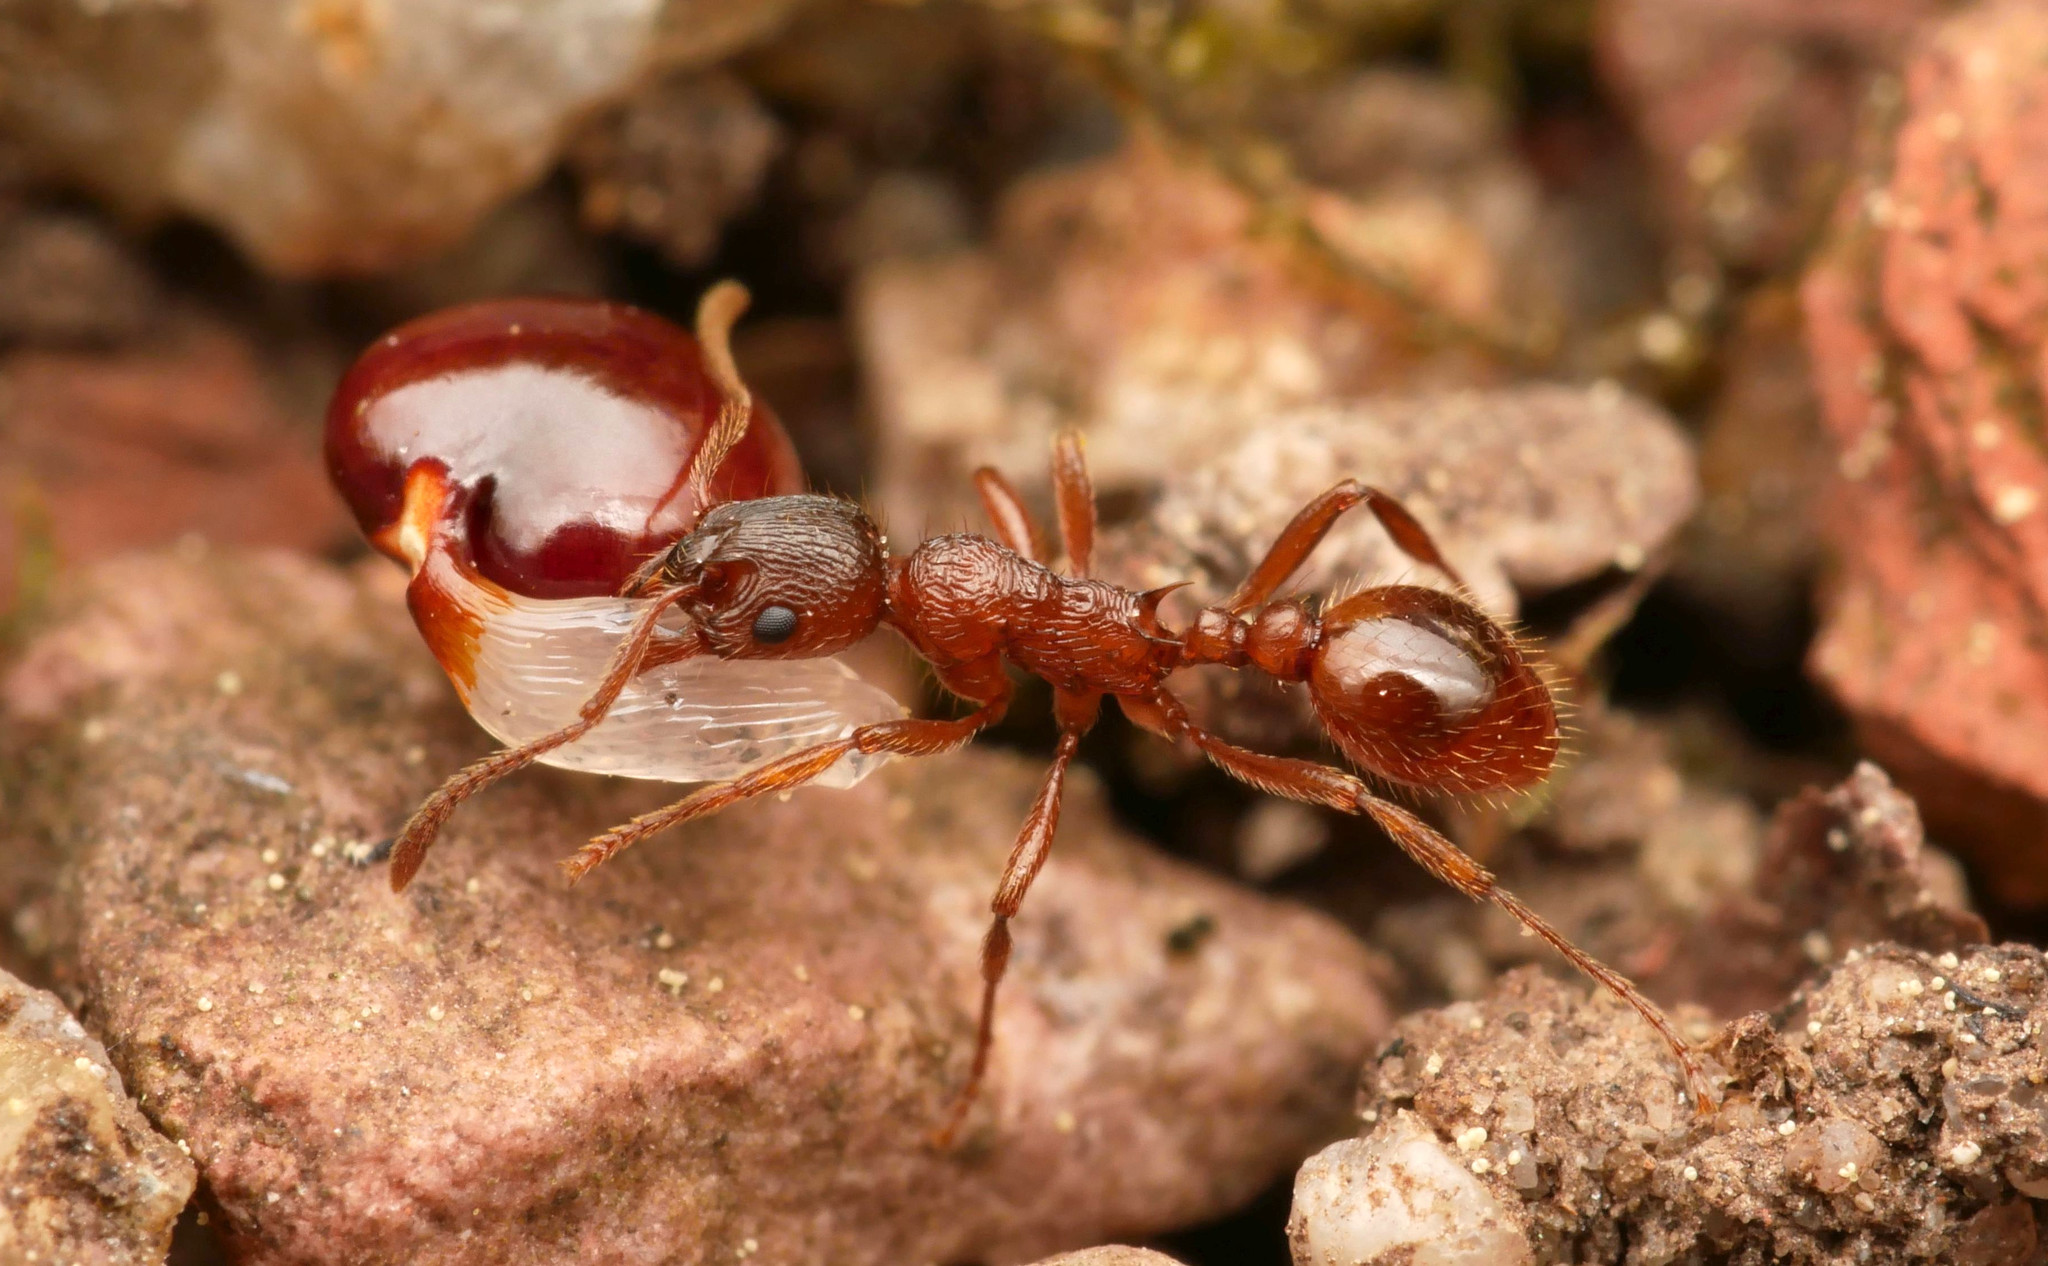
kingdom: Animalia
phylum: Arthropoda
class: Insecta
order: Hymenoptera
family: Formicidae
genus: Myrmica
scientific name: Myrmica rubra
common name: European fire ant
